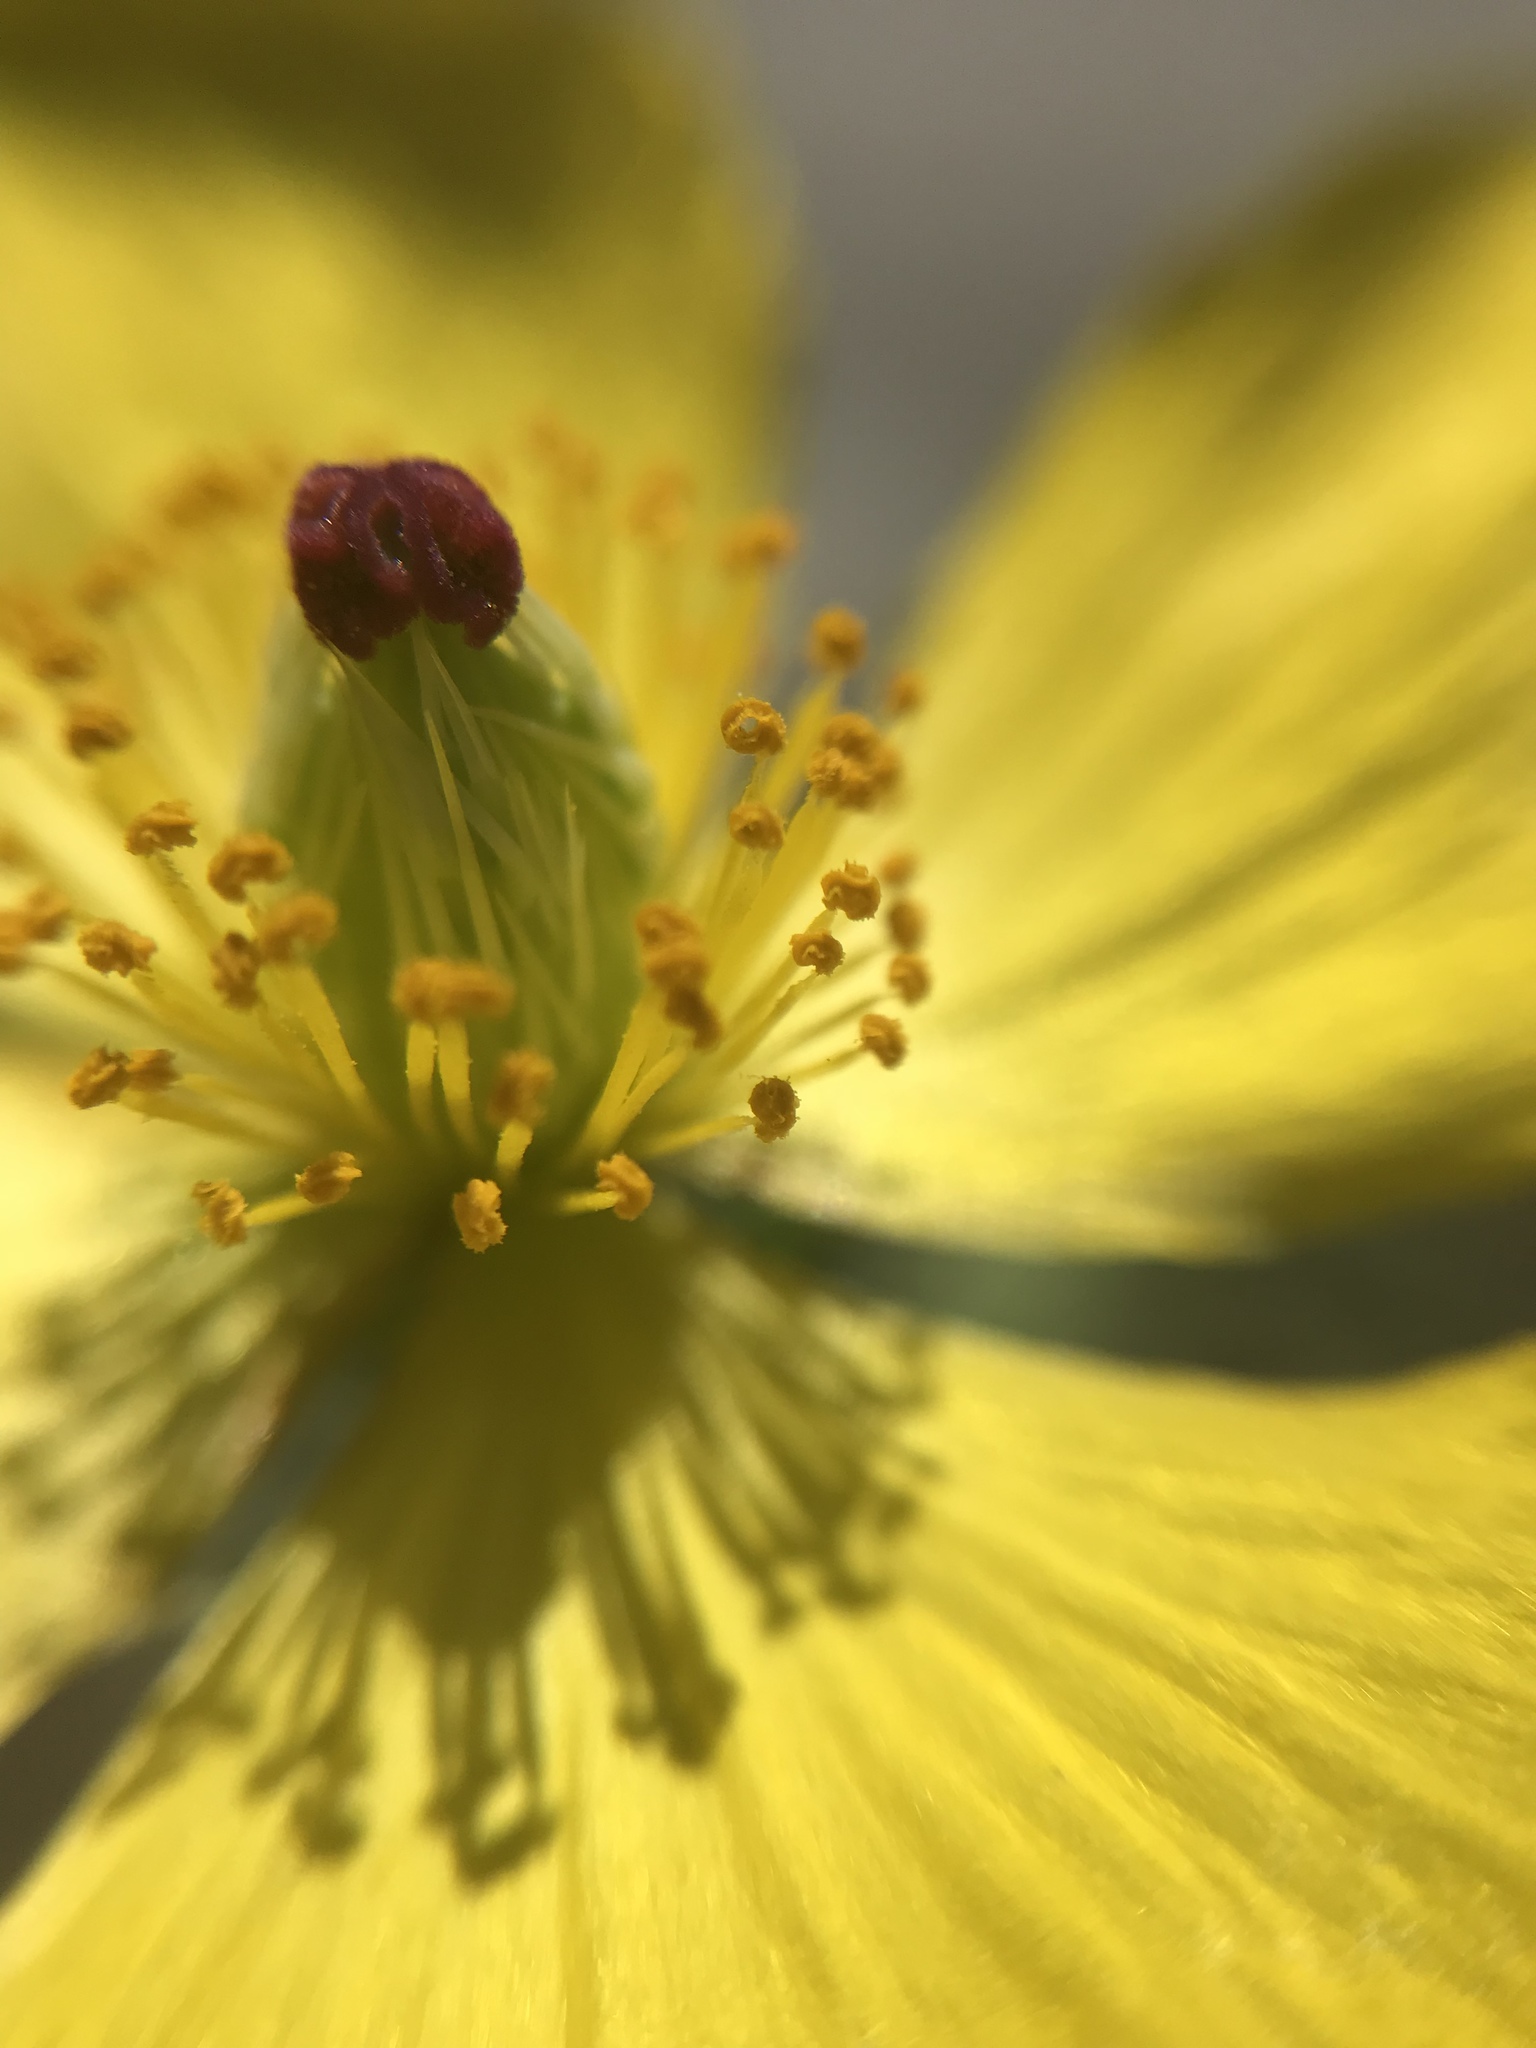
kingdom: Plantae
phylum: Tracheophyta
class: Magnoliopsida
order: Ranunculales
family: Papaveraceae
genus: Argemone
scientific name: Argemone mexicana
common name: Mexican poppy
